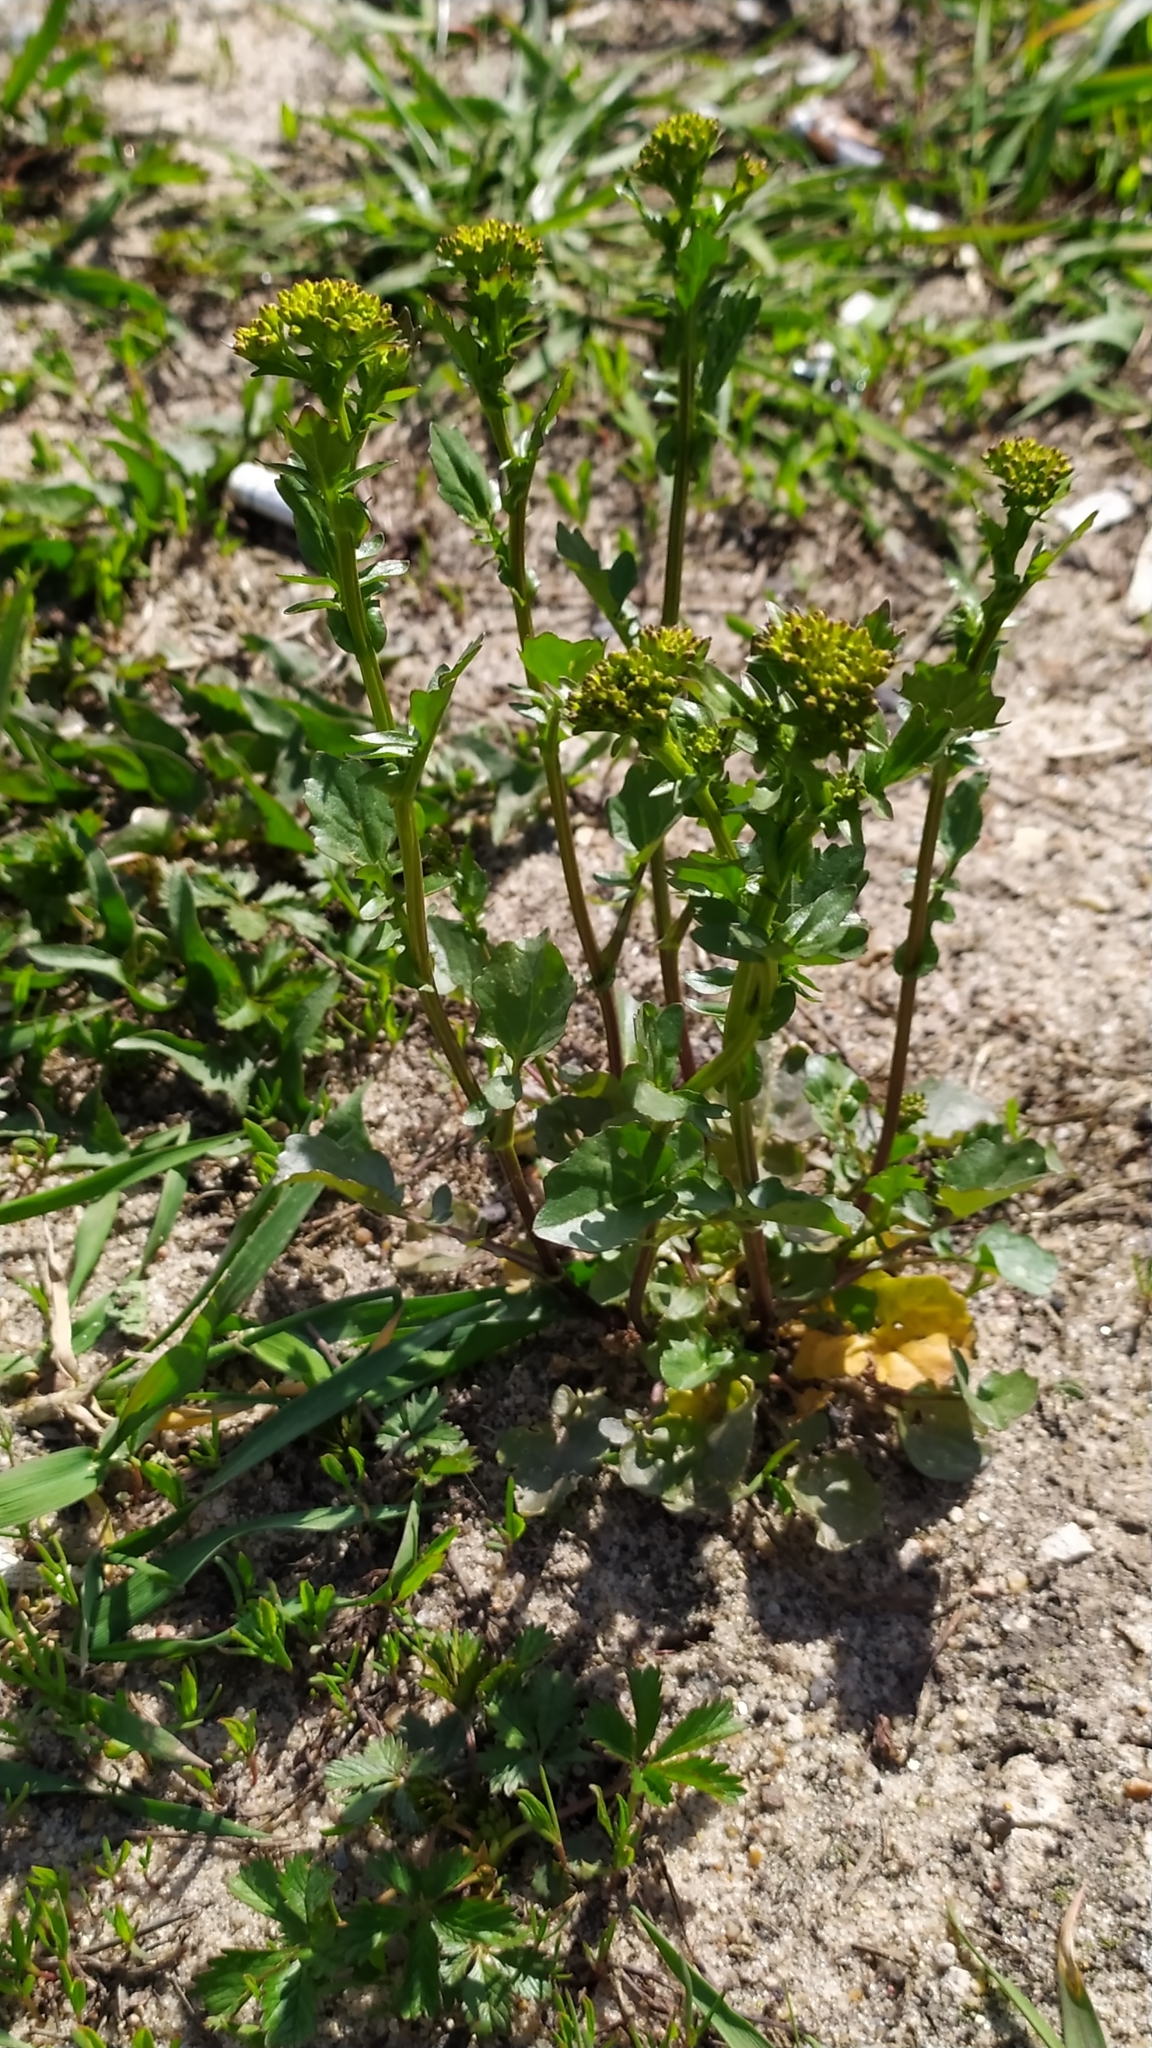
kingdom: Plantae
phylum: Tracheophyta
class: Magnoliopsida
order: Brassicales
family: Brassicaceae
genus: Barbarea
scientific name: Barbarea vulgaris
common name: Cressy-greens
